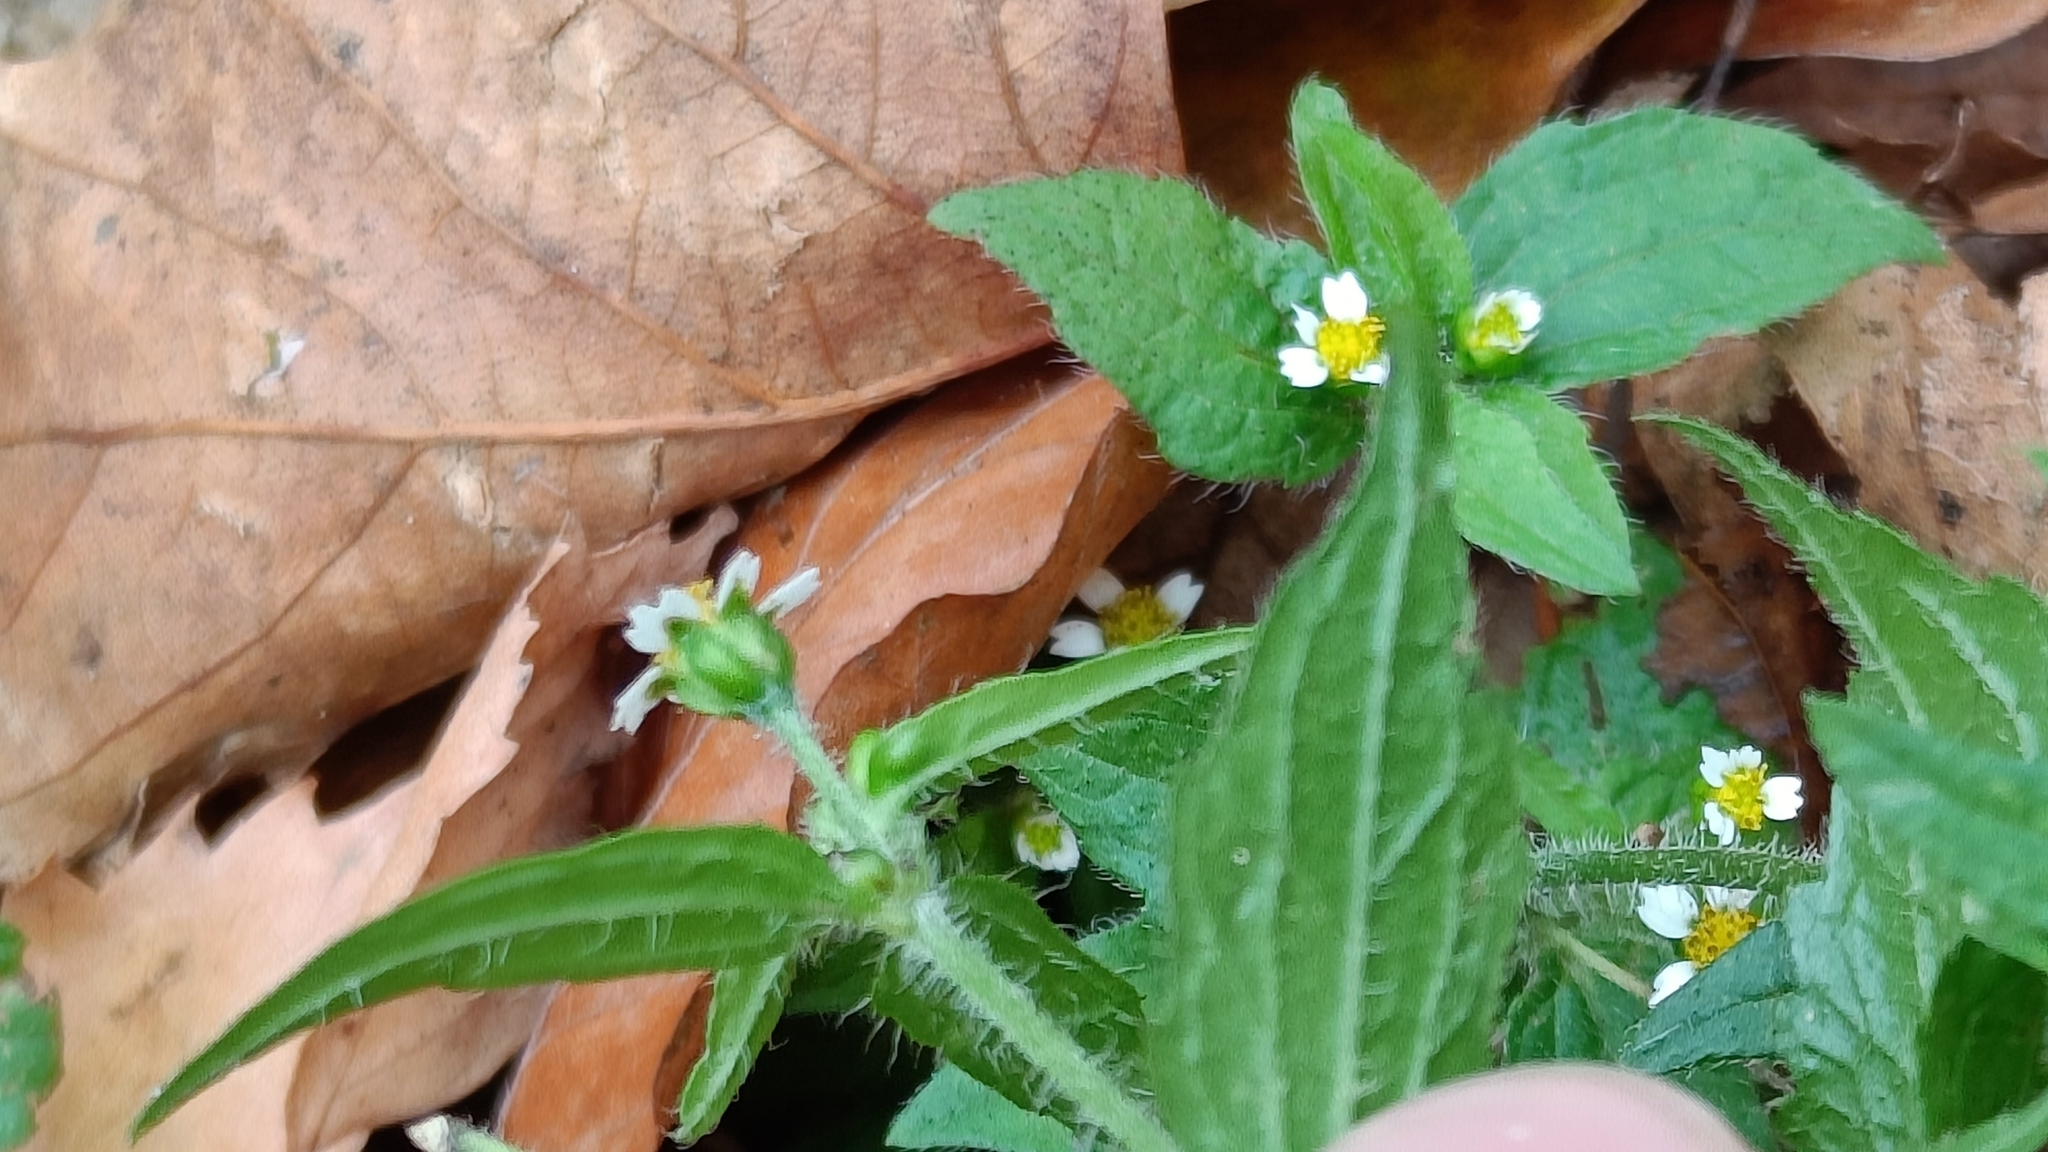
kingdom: Plantae
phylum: Tracheophyta
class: Magnoliopsida
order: Asterales
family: Asteraceae
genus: Galinsoga
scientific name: Galinsoga quadriradiata
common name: Shaggy soldier
